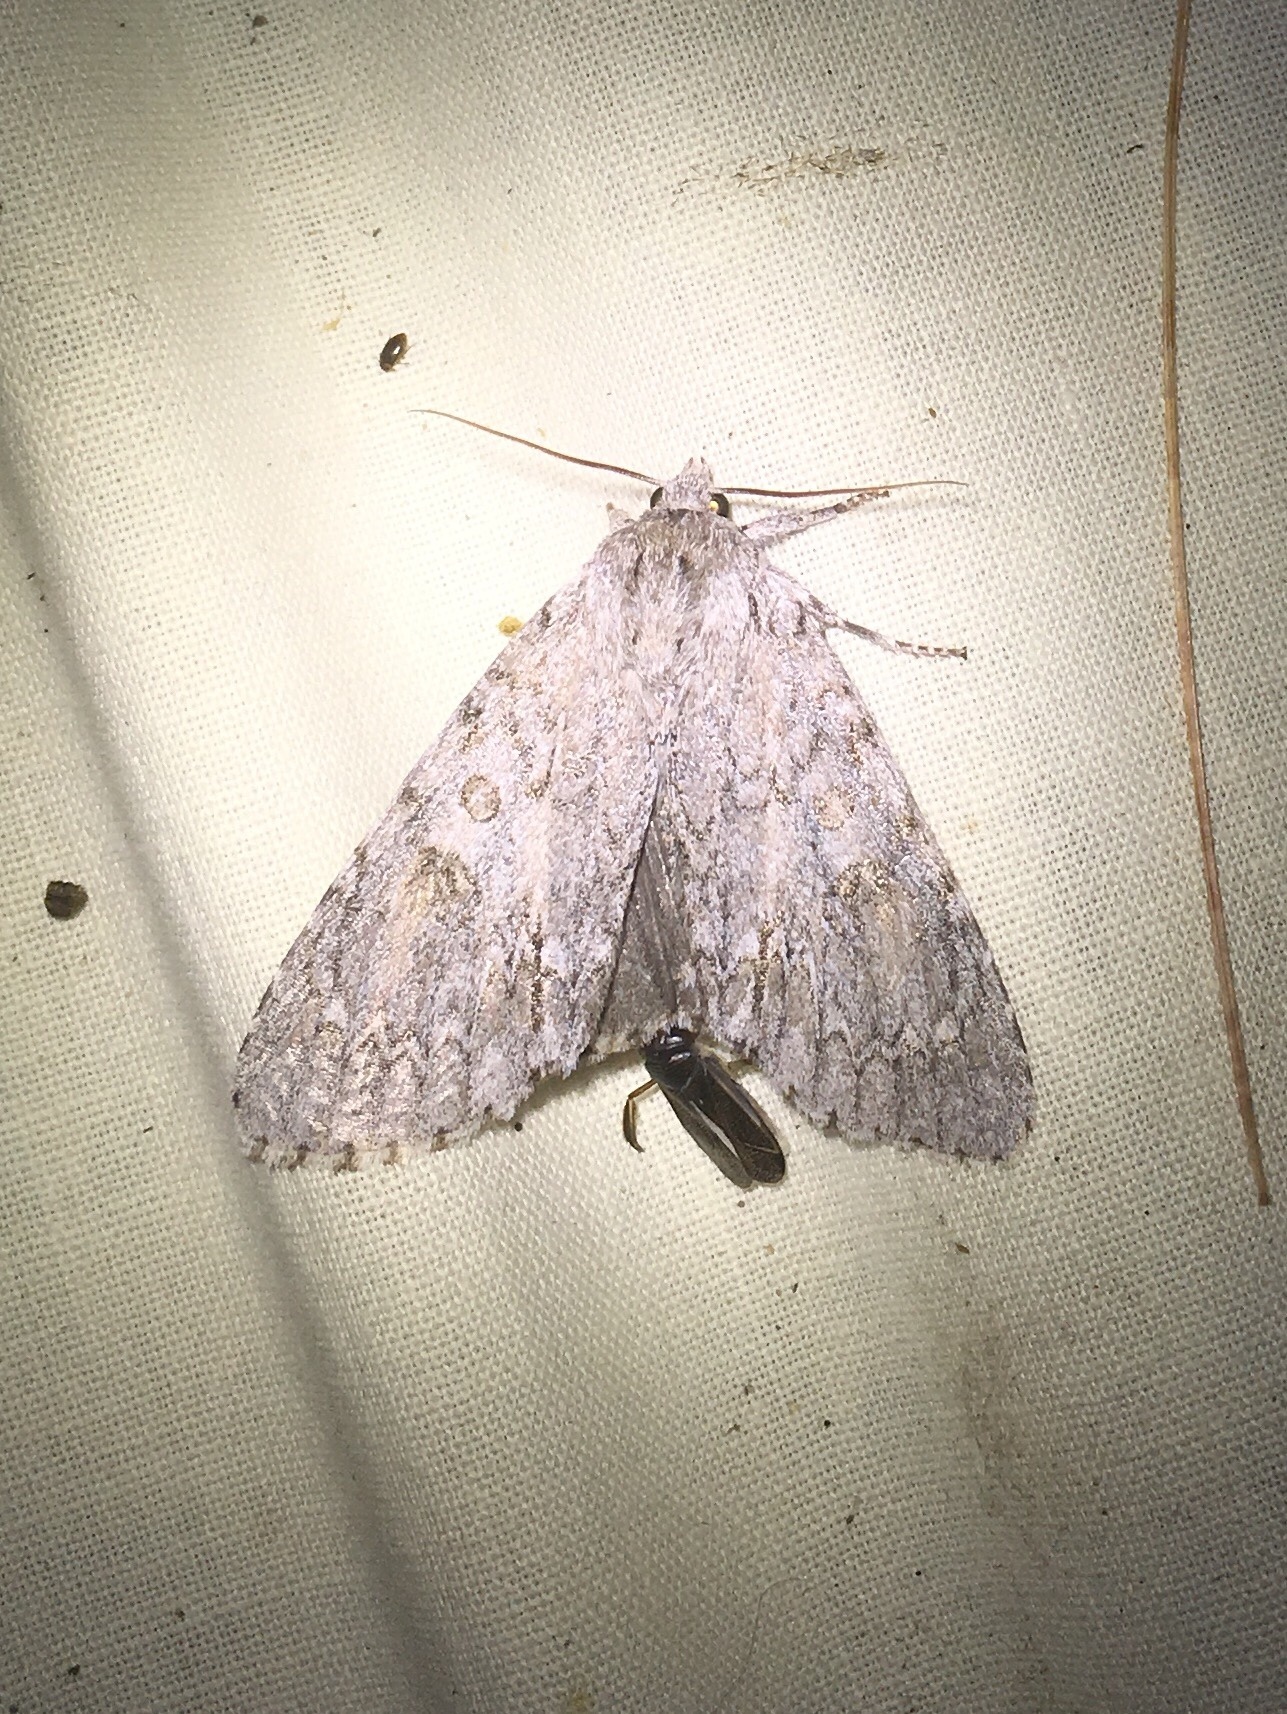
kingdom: Animalia
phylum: Arthropoda
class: Insecta
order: Lepidoptera
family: Noctuidae
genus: Acronicta
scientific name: Acronicta americana
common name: American dagger
